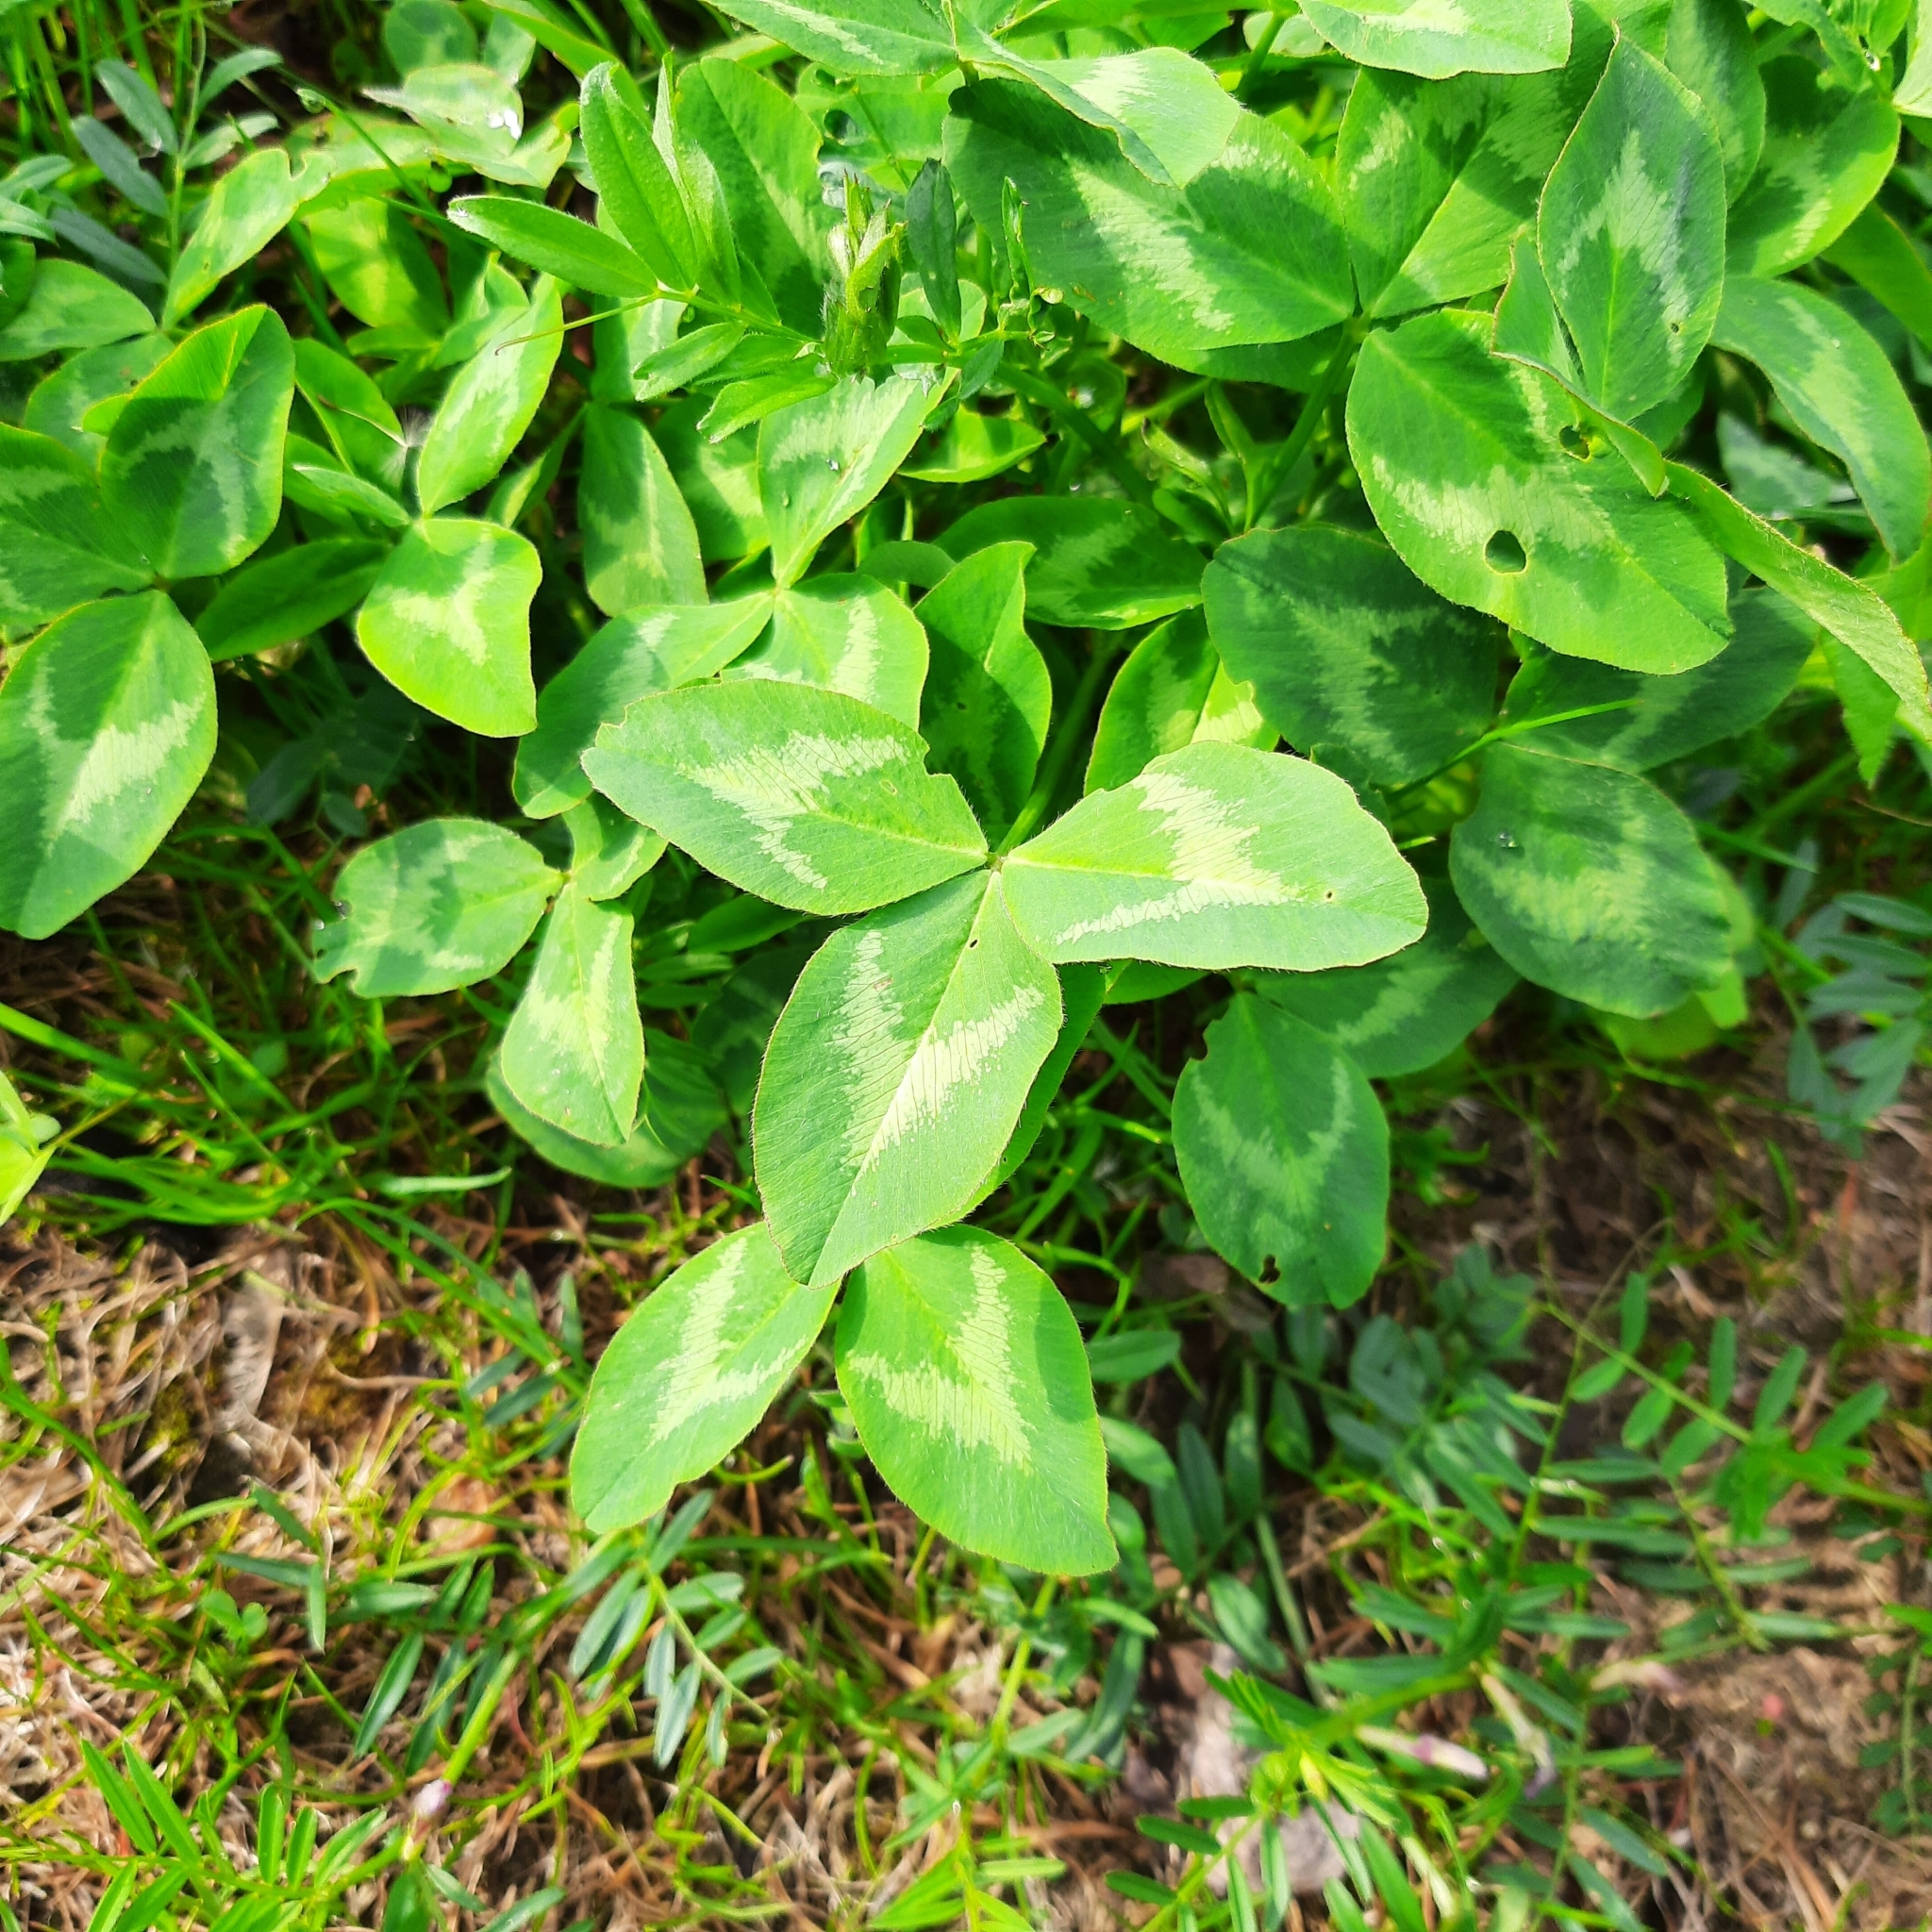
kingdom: Plantae
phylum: Tracheophyta
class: Magnoliopsida
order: Fabales
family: Fabaceae
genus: Trifolium
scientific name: Trifolium pratense
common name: Red clover
